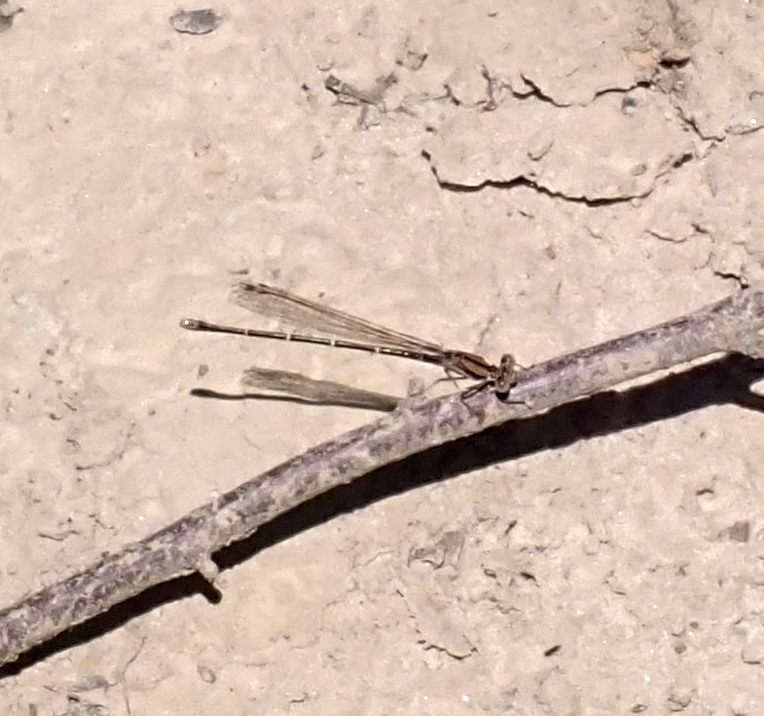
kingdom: Animalia
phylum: Arthropoda
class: Insecta
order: Odonata
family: Coenagrionidae
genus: Argia
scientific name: Argia tibialis
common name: Blue-tipped dancer
